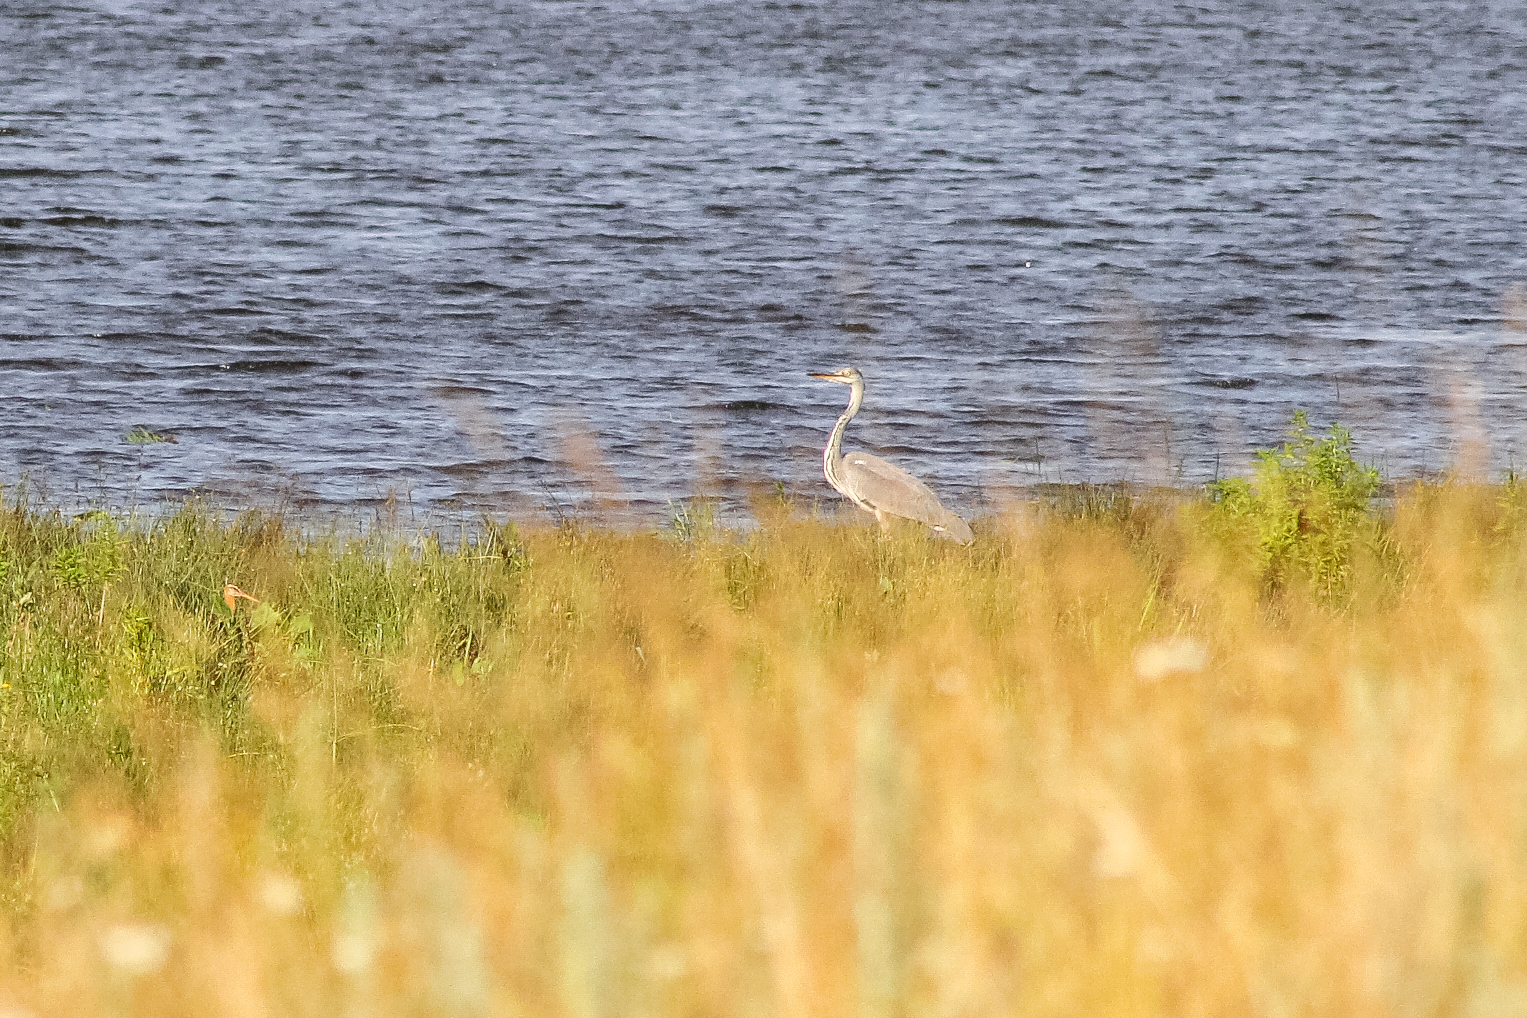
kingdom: Animalia
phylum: Chordata
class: Aves
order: Pelecaniformes
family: Ardeidae
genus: Ardea
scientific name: Ardea cinerea
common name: Grey heron
